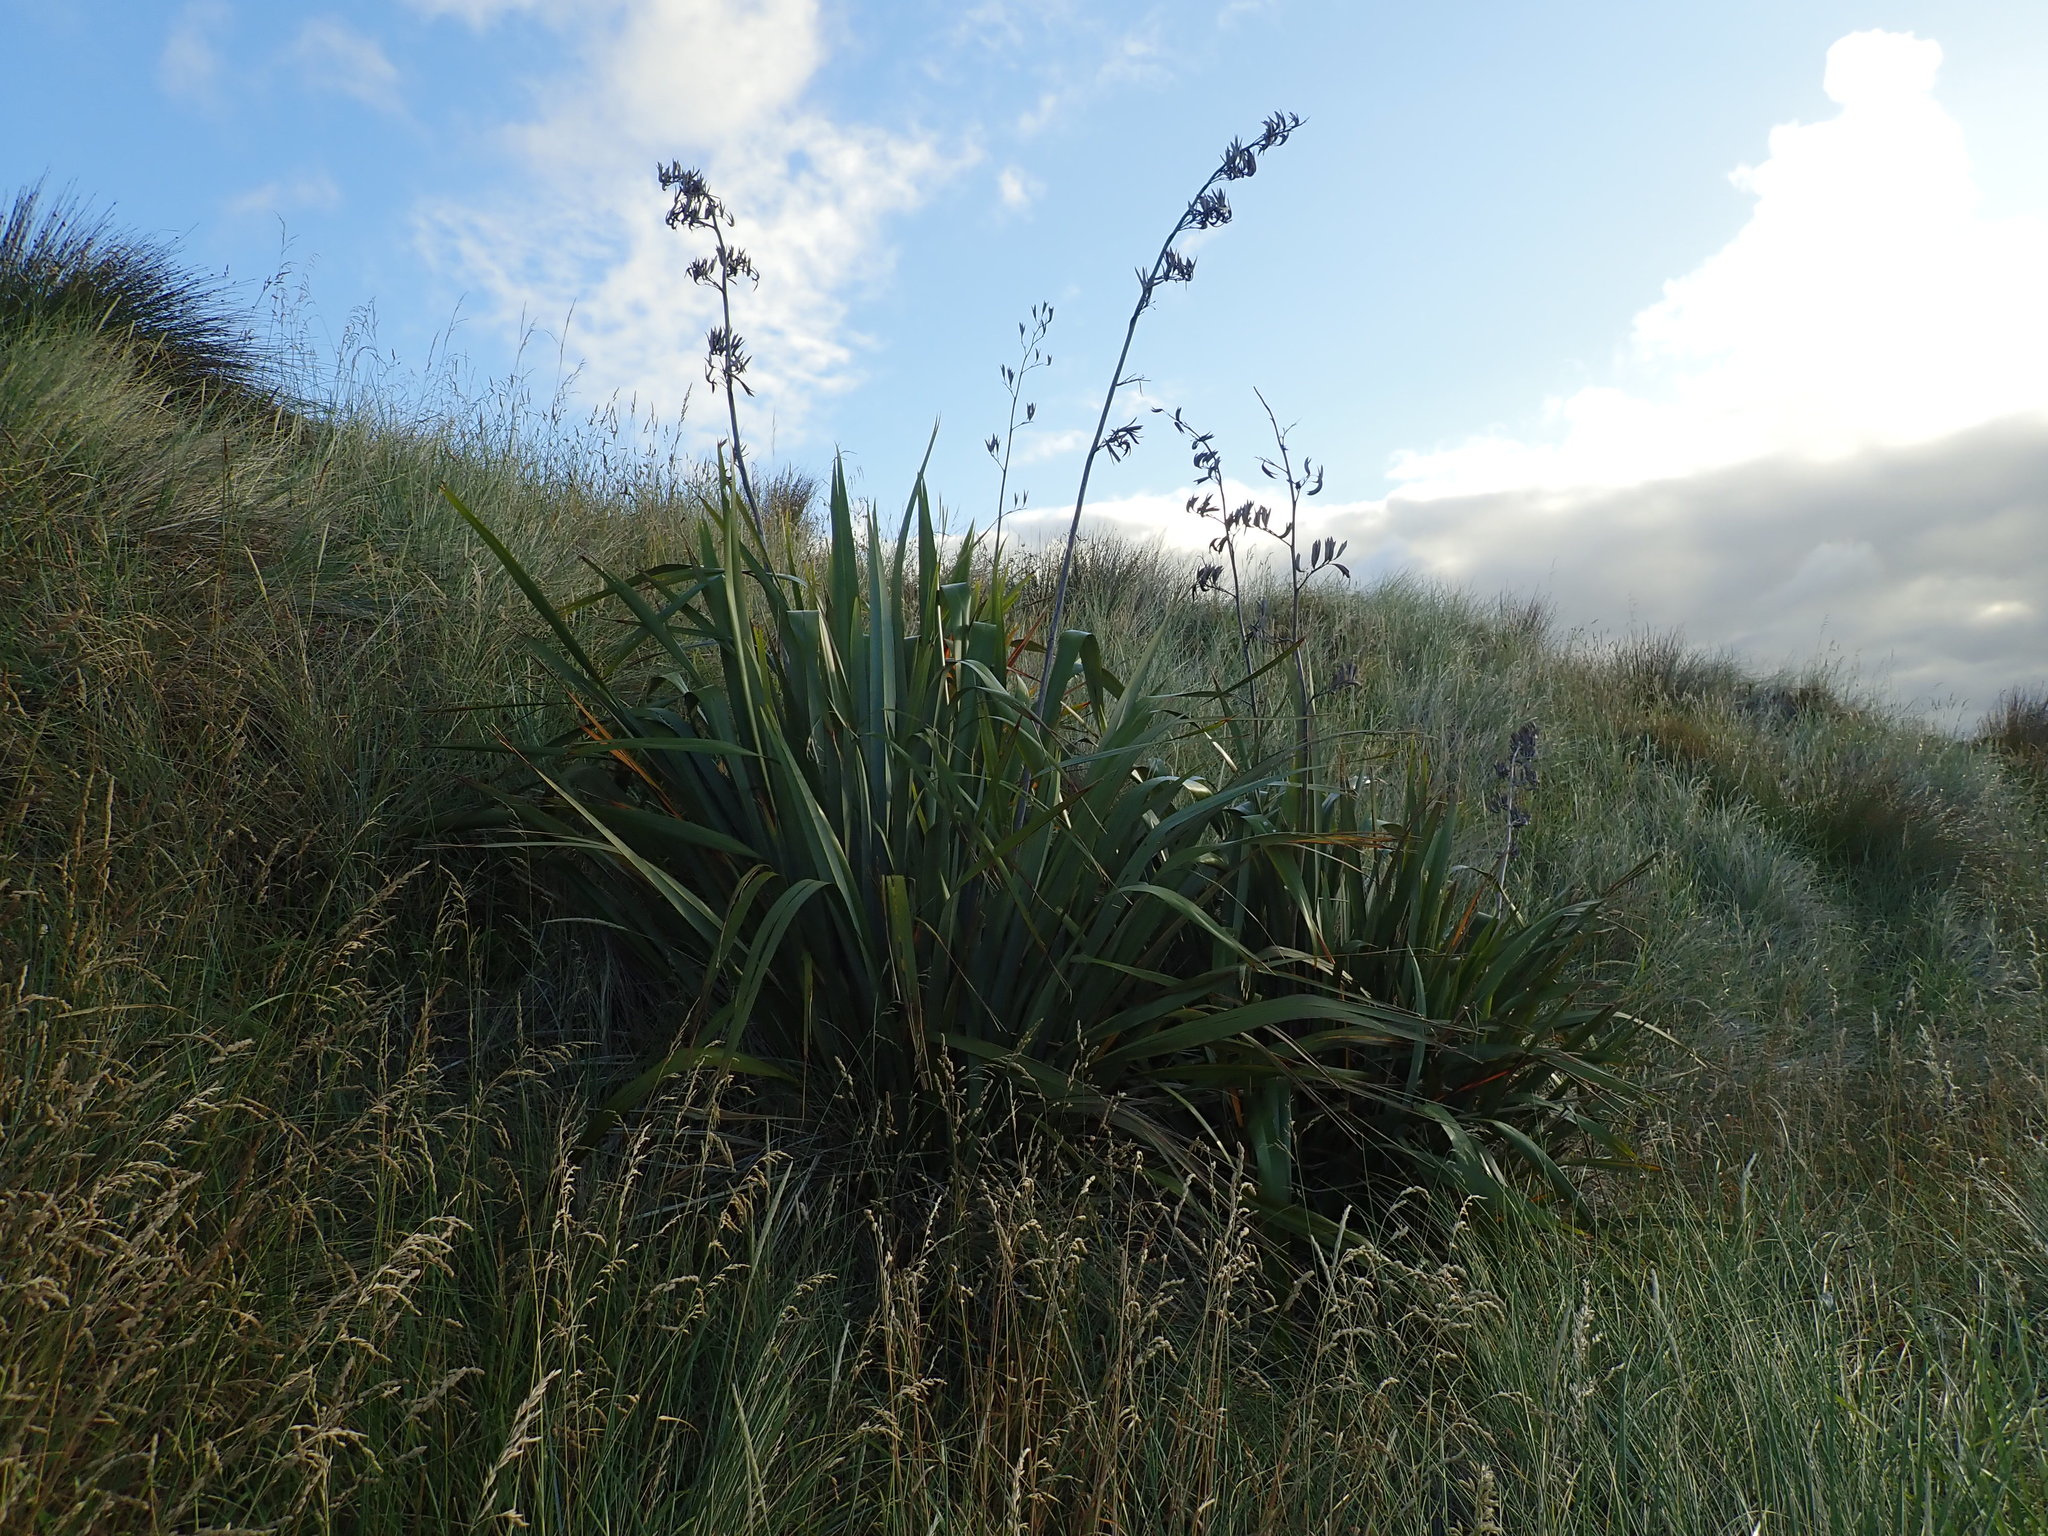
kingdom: Plantae
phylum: Tracheophyta
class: Liliopsida
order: Asparagales
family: Asphodelaceae
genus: Phormium
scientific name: Phormium tenax
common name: New zealand flax
